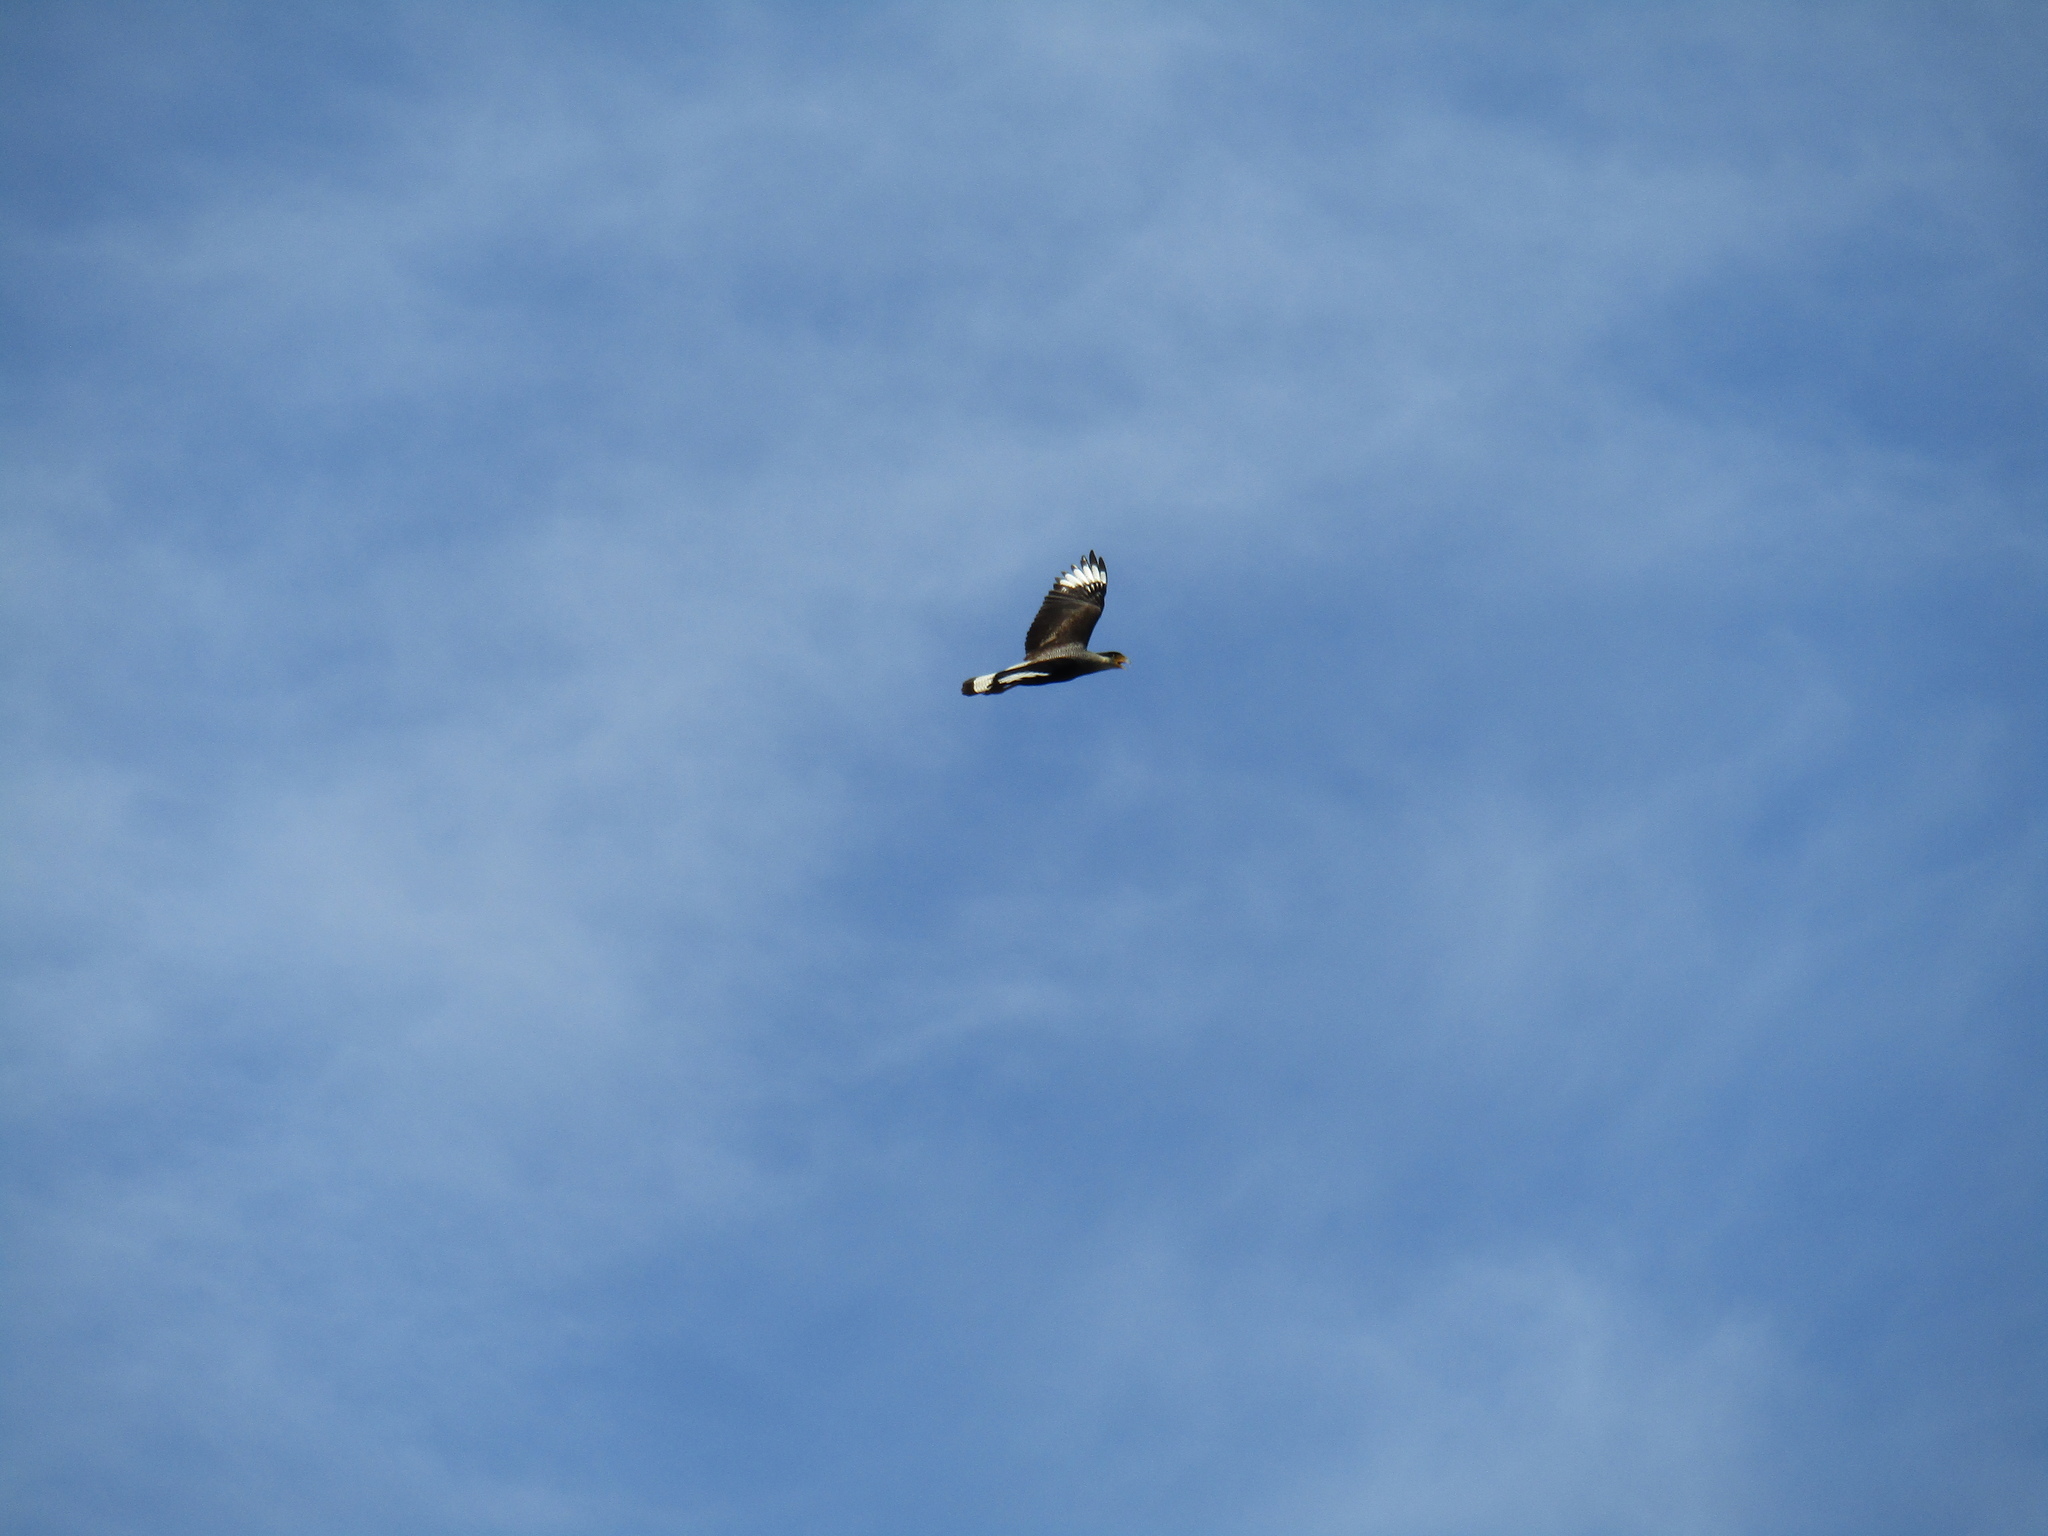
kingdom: Animalia
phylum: Chordata
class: Aves
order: Falconiformes
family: Falconidae
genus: Caracara
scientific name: Caracara plancus
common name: Southern caracara
